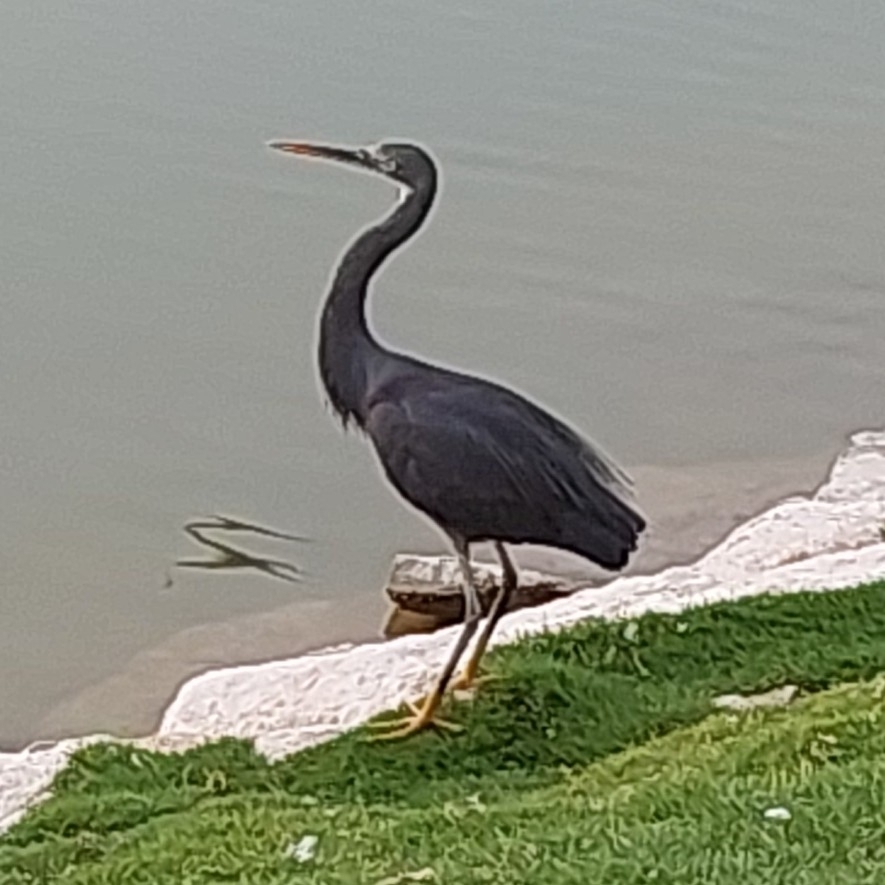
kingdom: Animalia
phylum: Chordata
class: Aves
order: Pelecaniformes
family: Ardeidae
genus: Egretta
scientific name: Egretta gularis
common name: Western reef-heron
